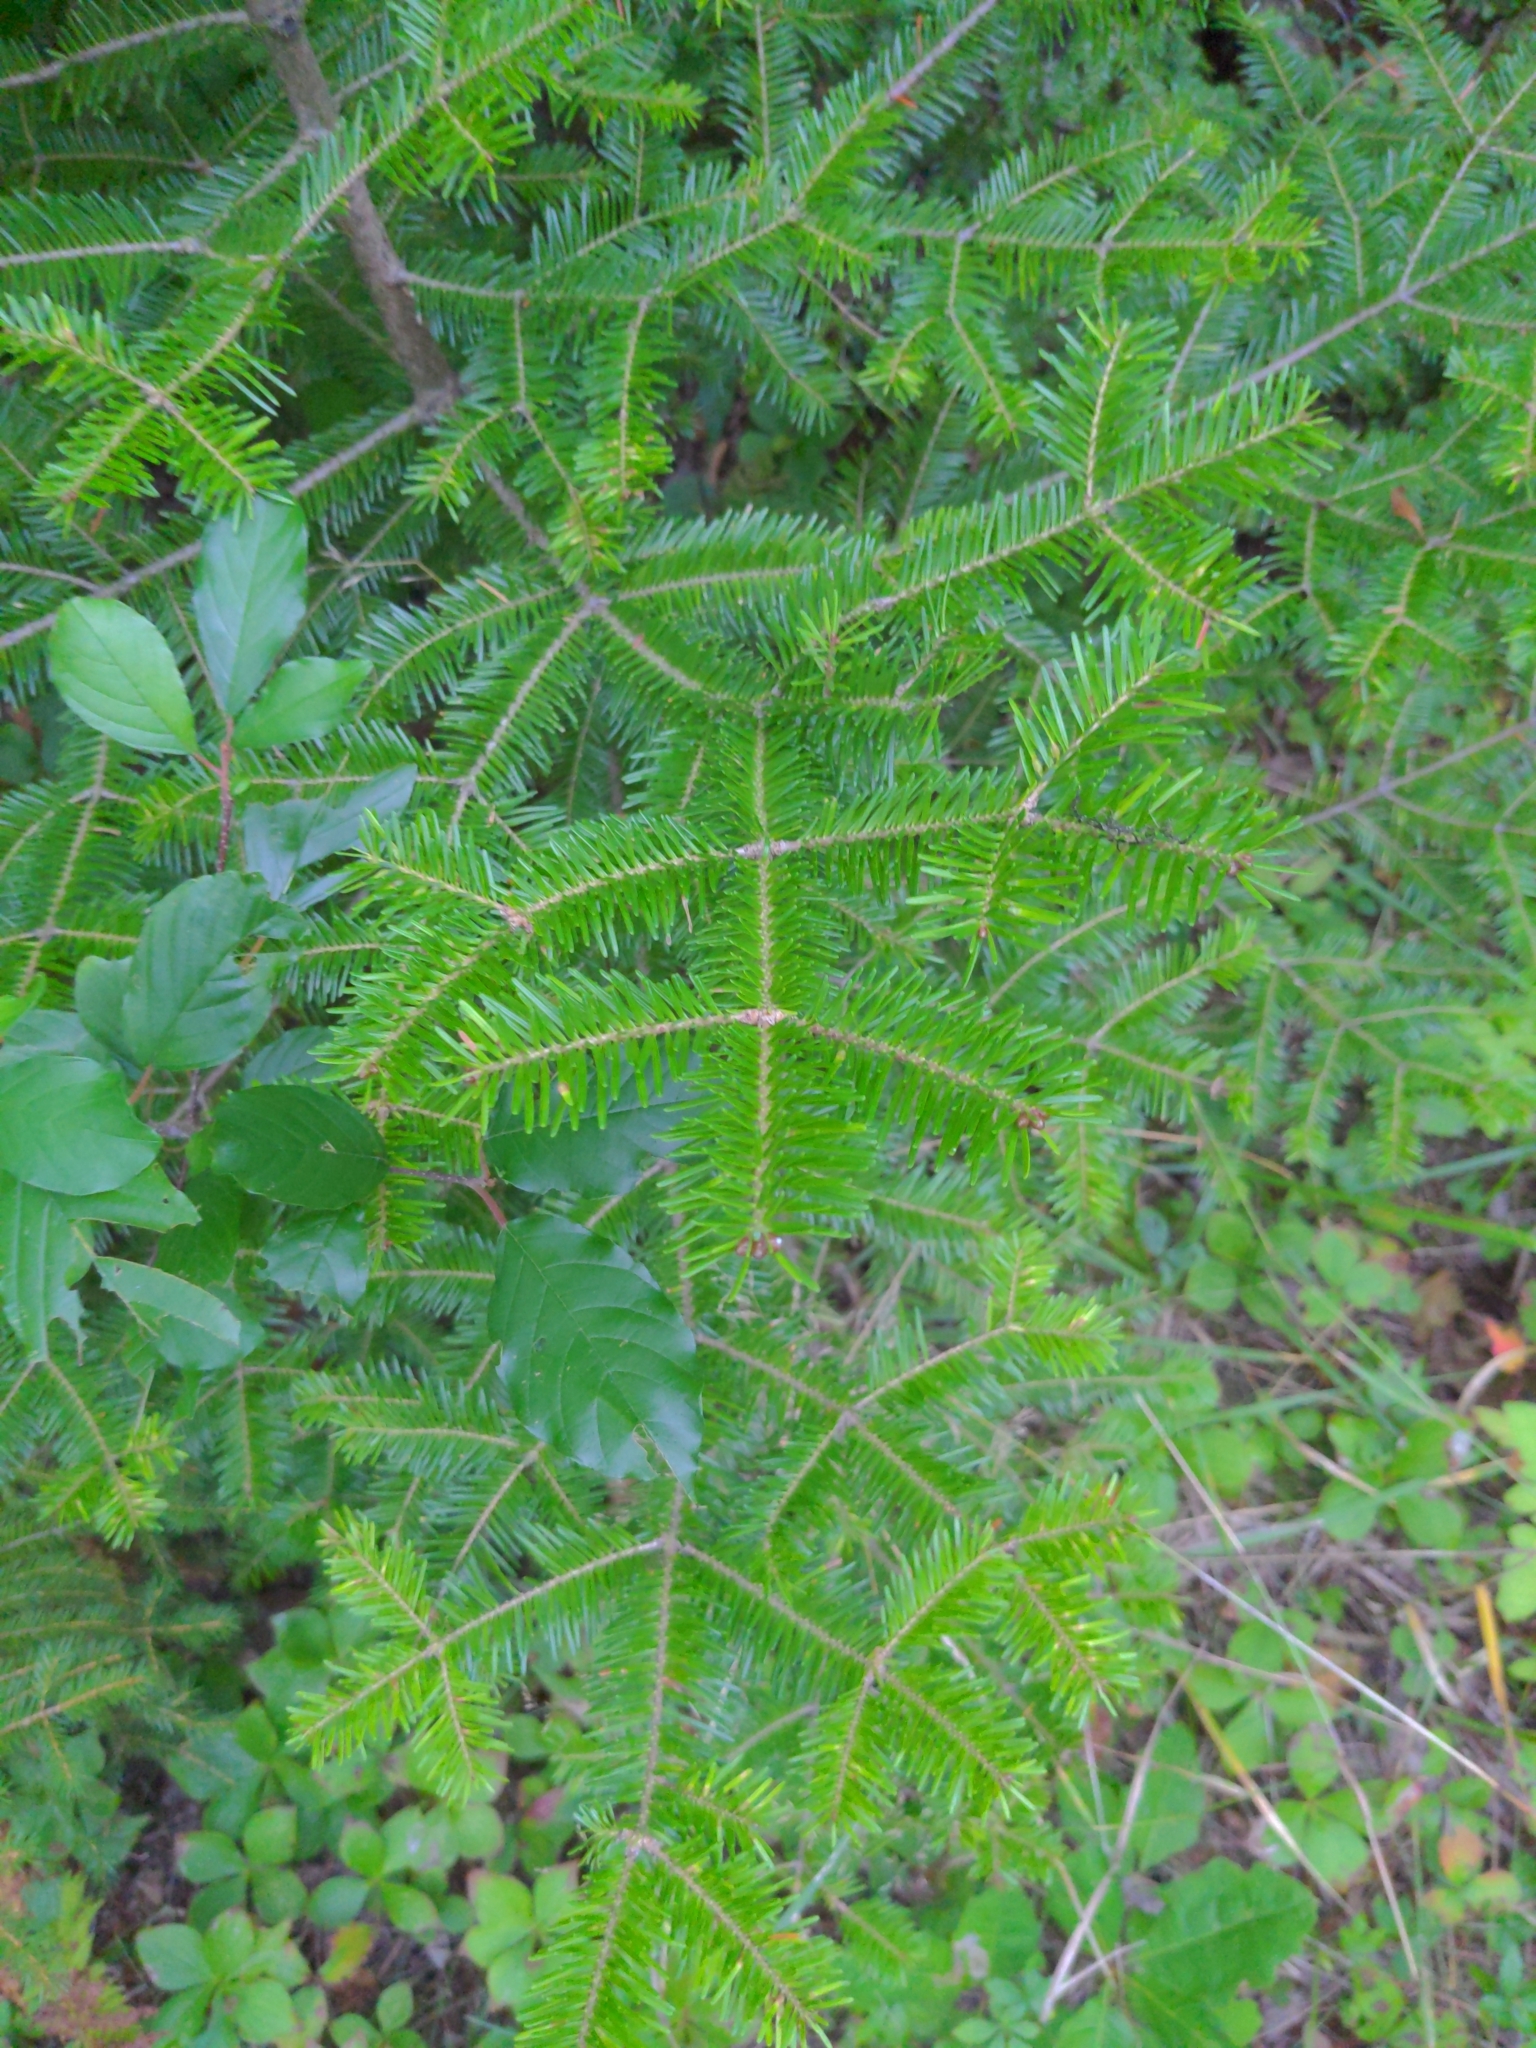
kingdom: Plantae
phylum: Tracheophyta
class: Pinopsida
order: Pinales
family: Pinaceae
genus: Abies
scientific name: Abies balsamea
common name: Balsam fir
